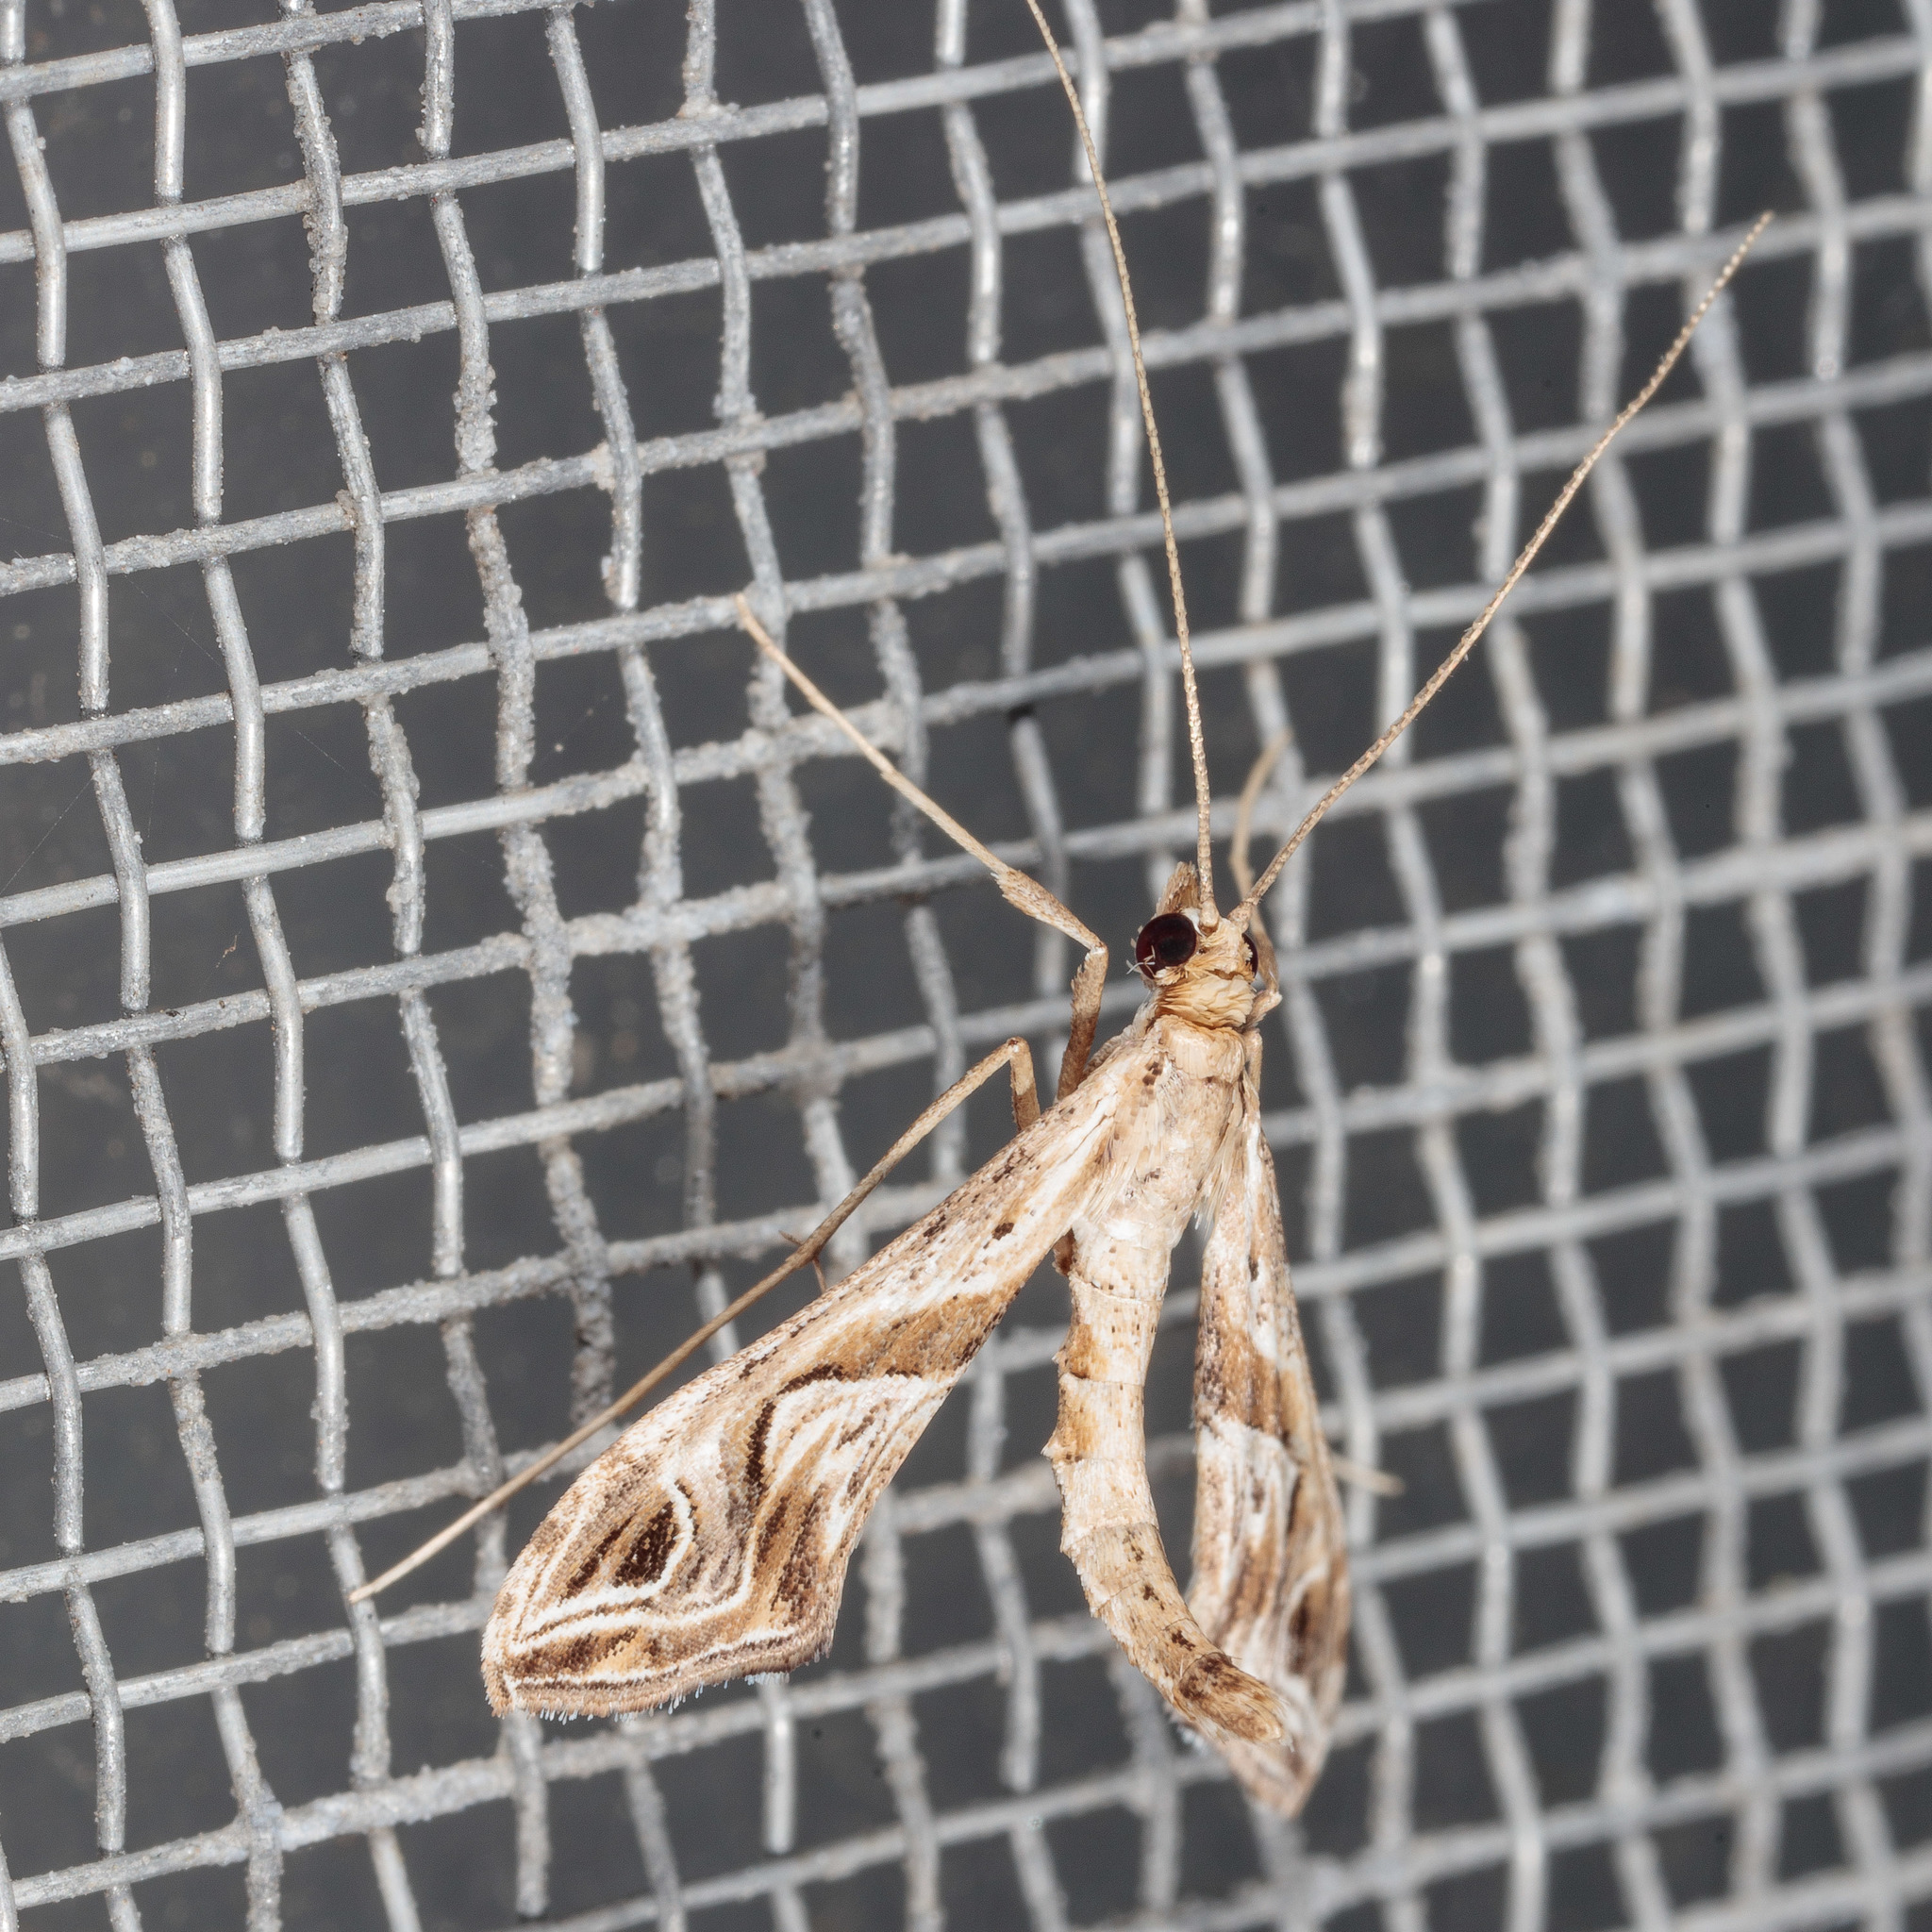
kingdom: Animalia
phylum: Arthropoda
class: Insecta
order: Lepidoptera
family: Crambidae
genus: Lineodes
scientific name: Lineodes integra
